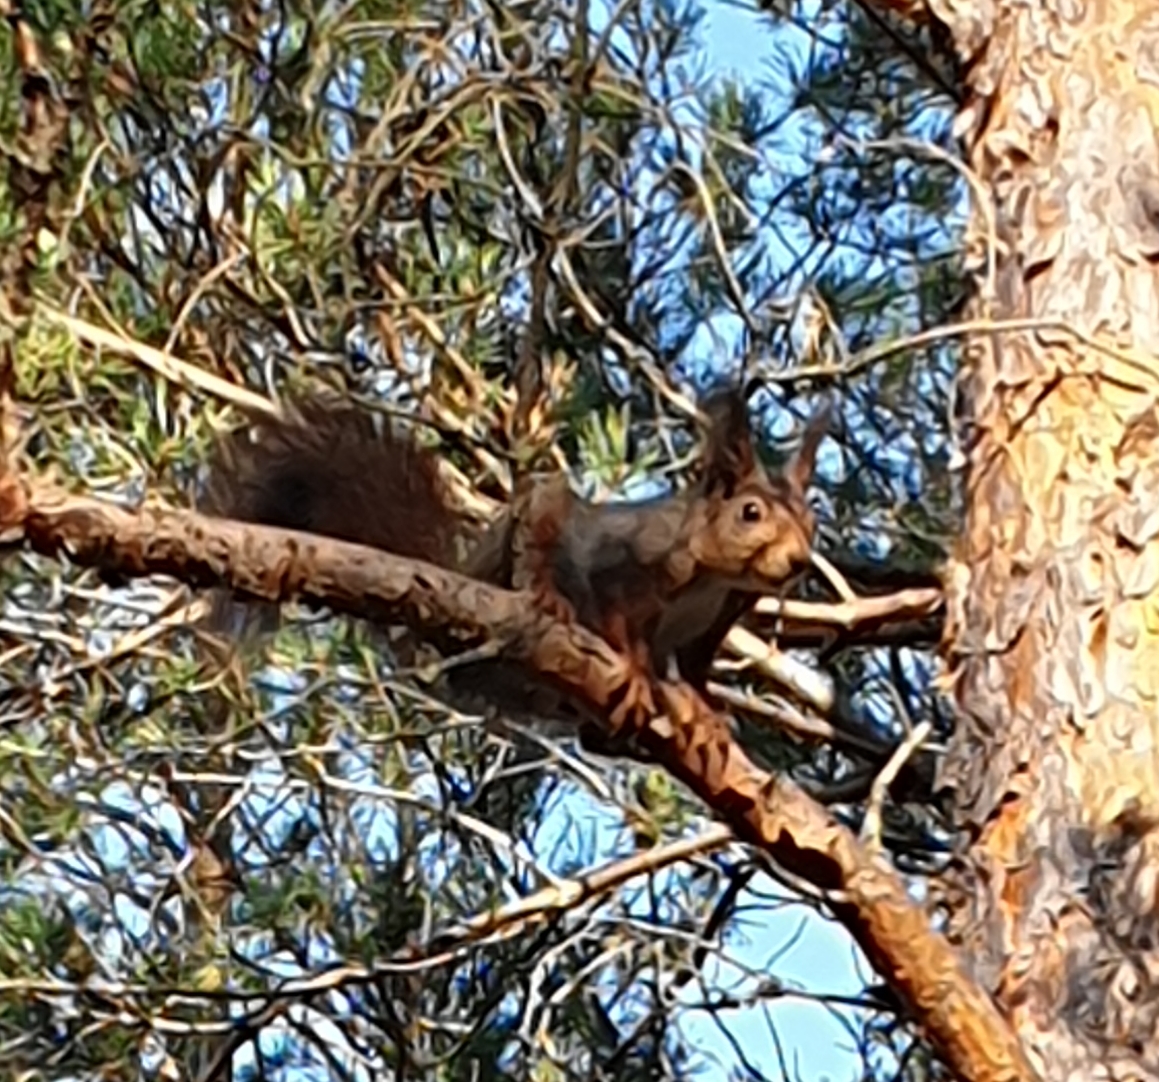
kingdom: Animalia
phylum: Chordata
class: Mammalia
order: Rodentia
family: Sciuridae
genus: Sciurus
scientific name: Sciurus vulgaris
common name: Eurasian red squirrel
